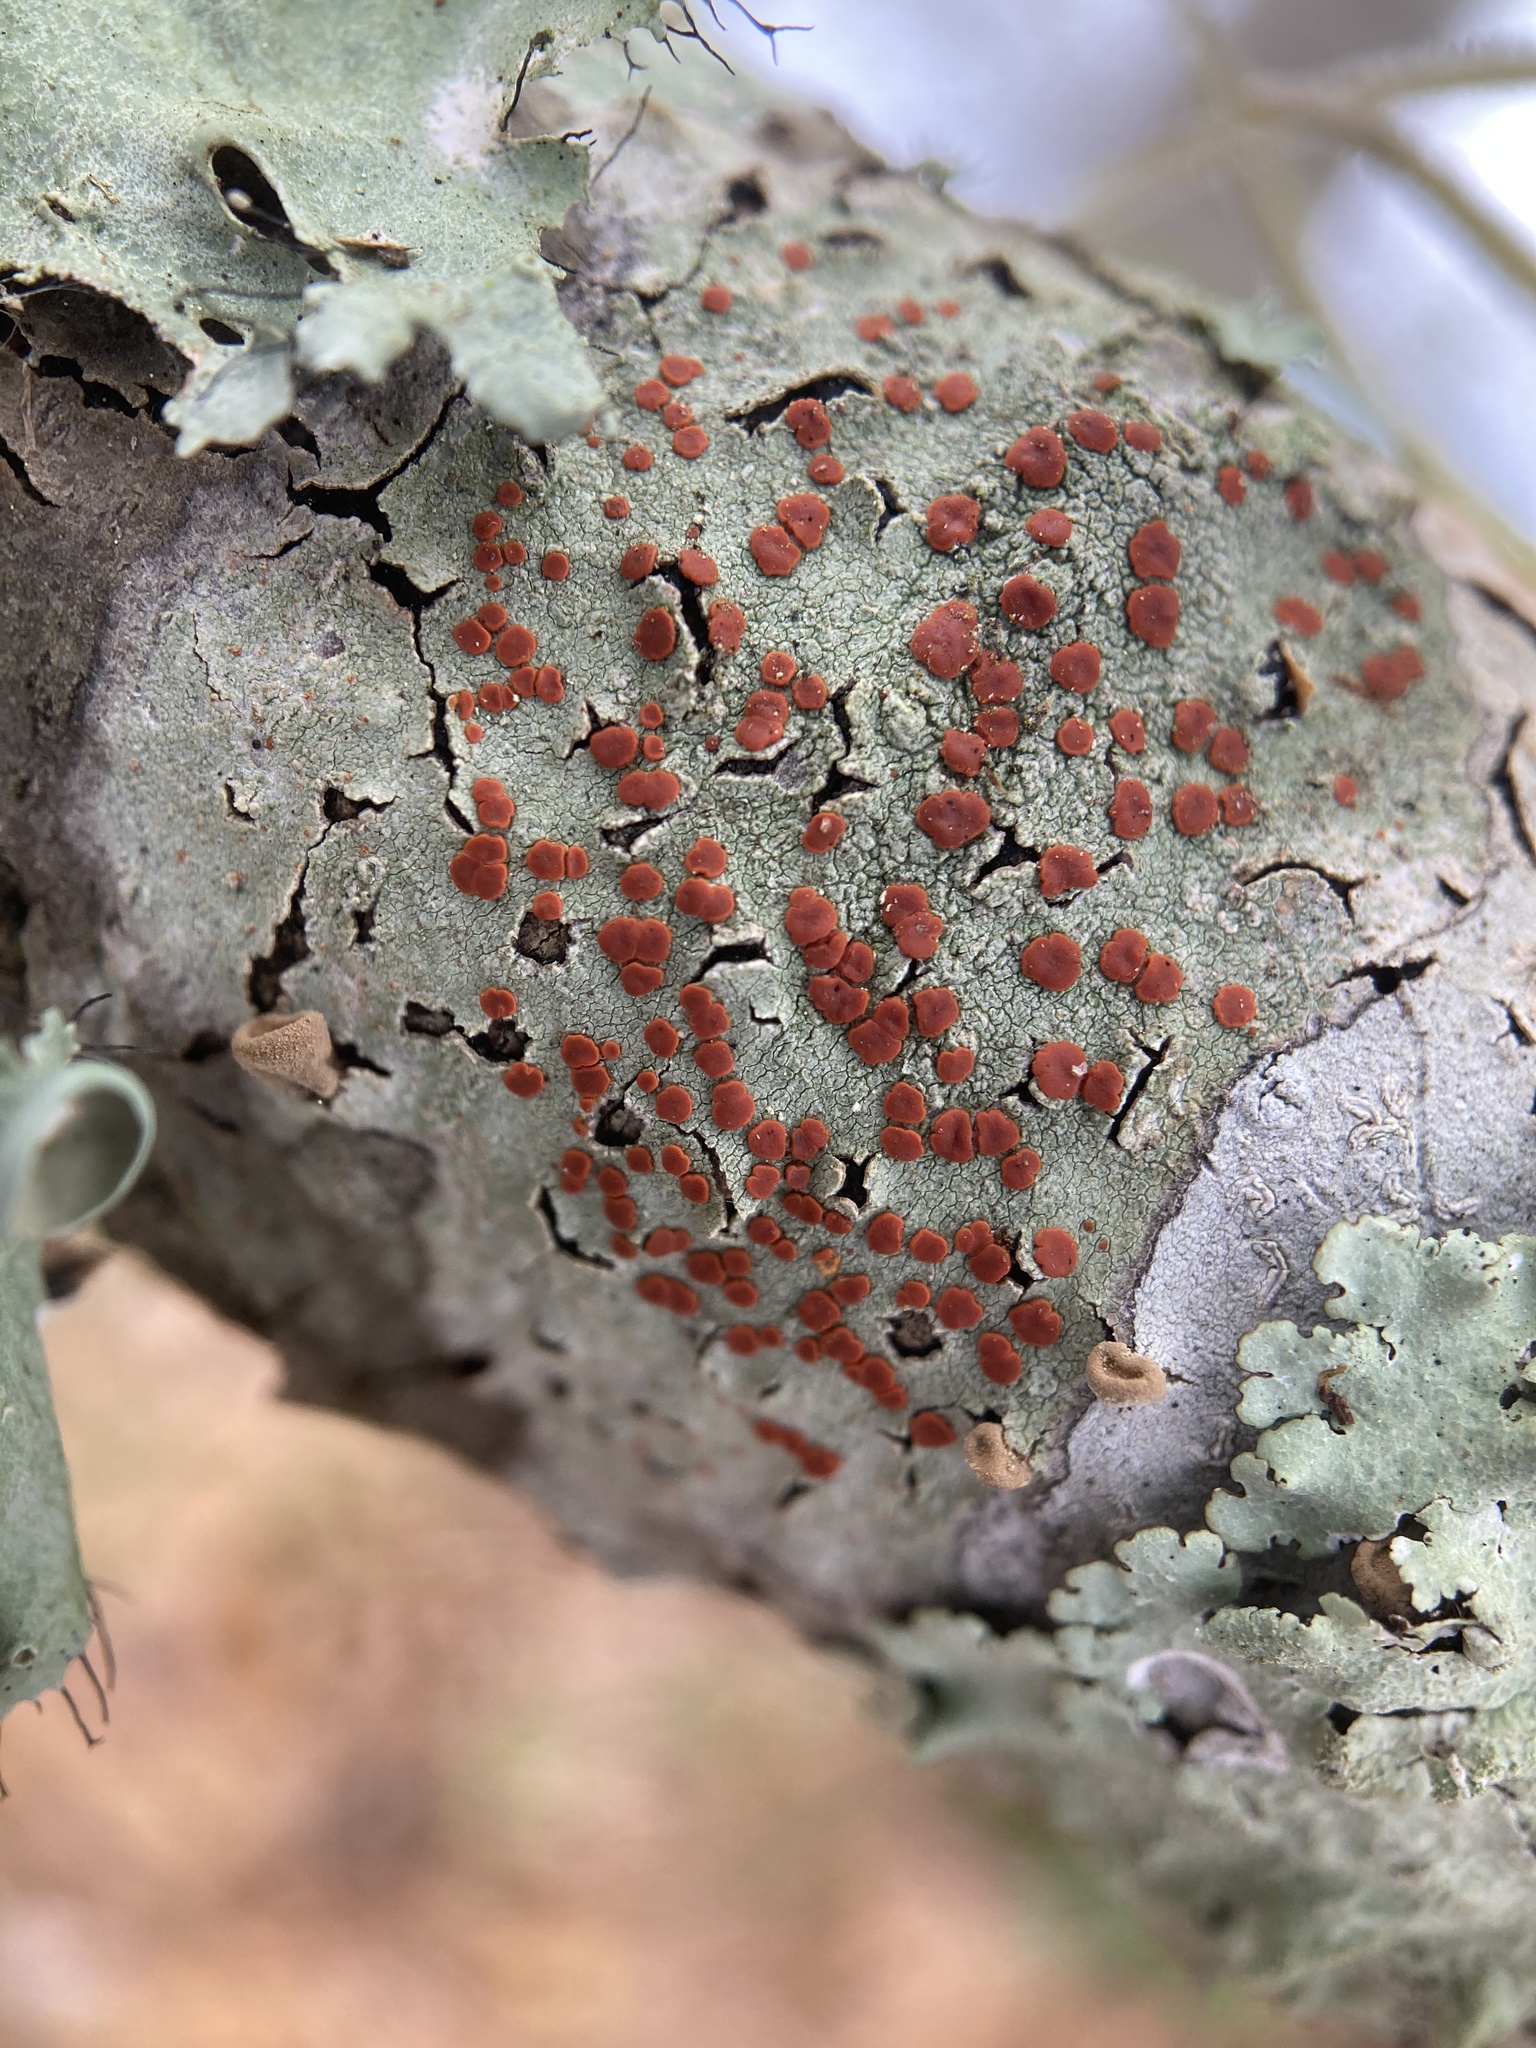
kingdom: Fungi
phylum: Ascomycota
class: Lecanoromycetes
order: Lecanorales
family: Ramboldiaceae
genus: Ramboldia
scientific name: Ramboldia russula
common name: Red heads
